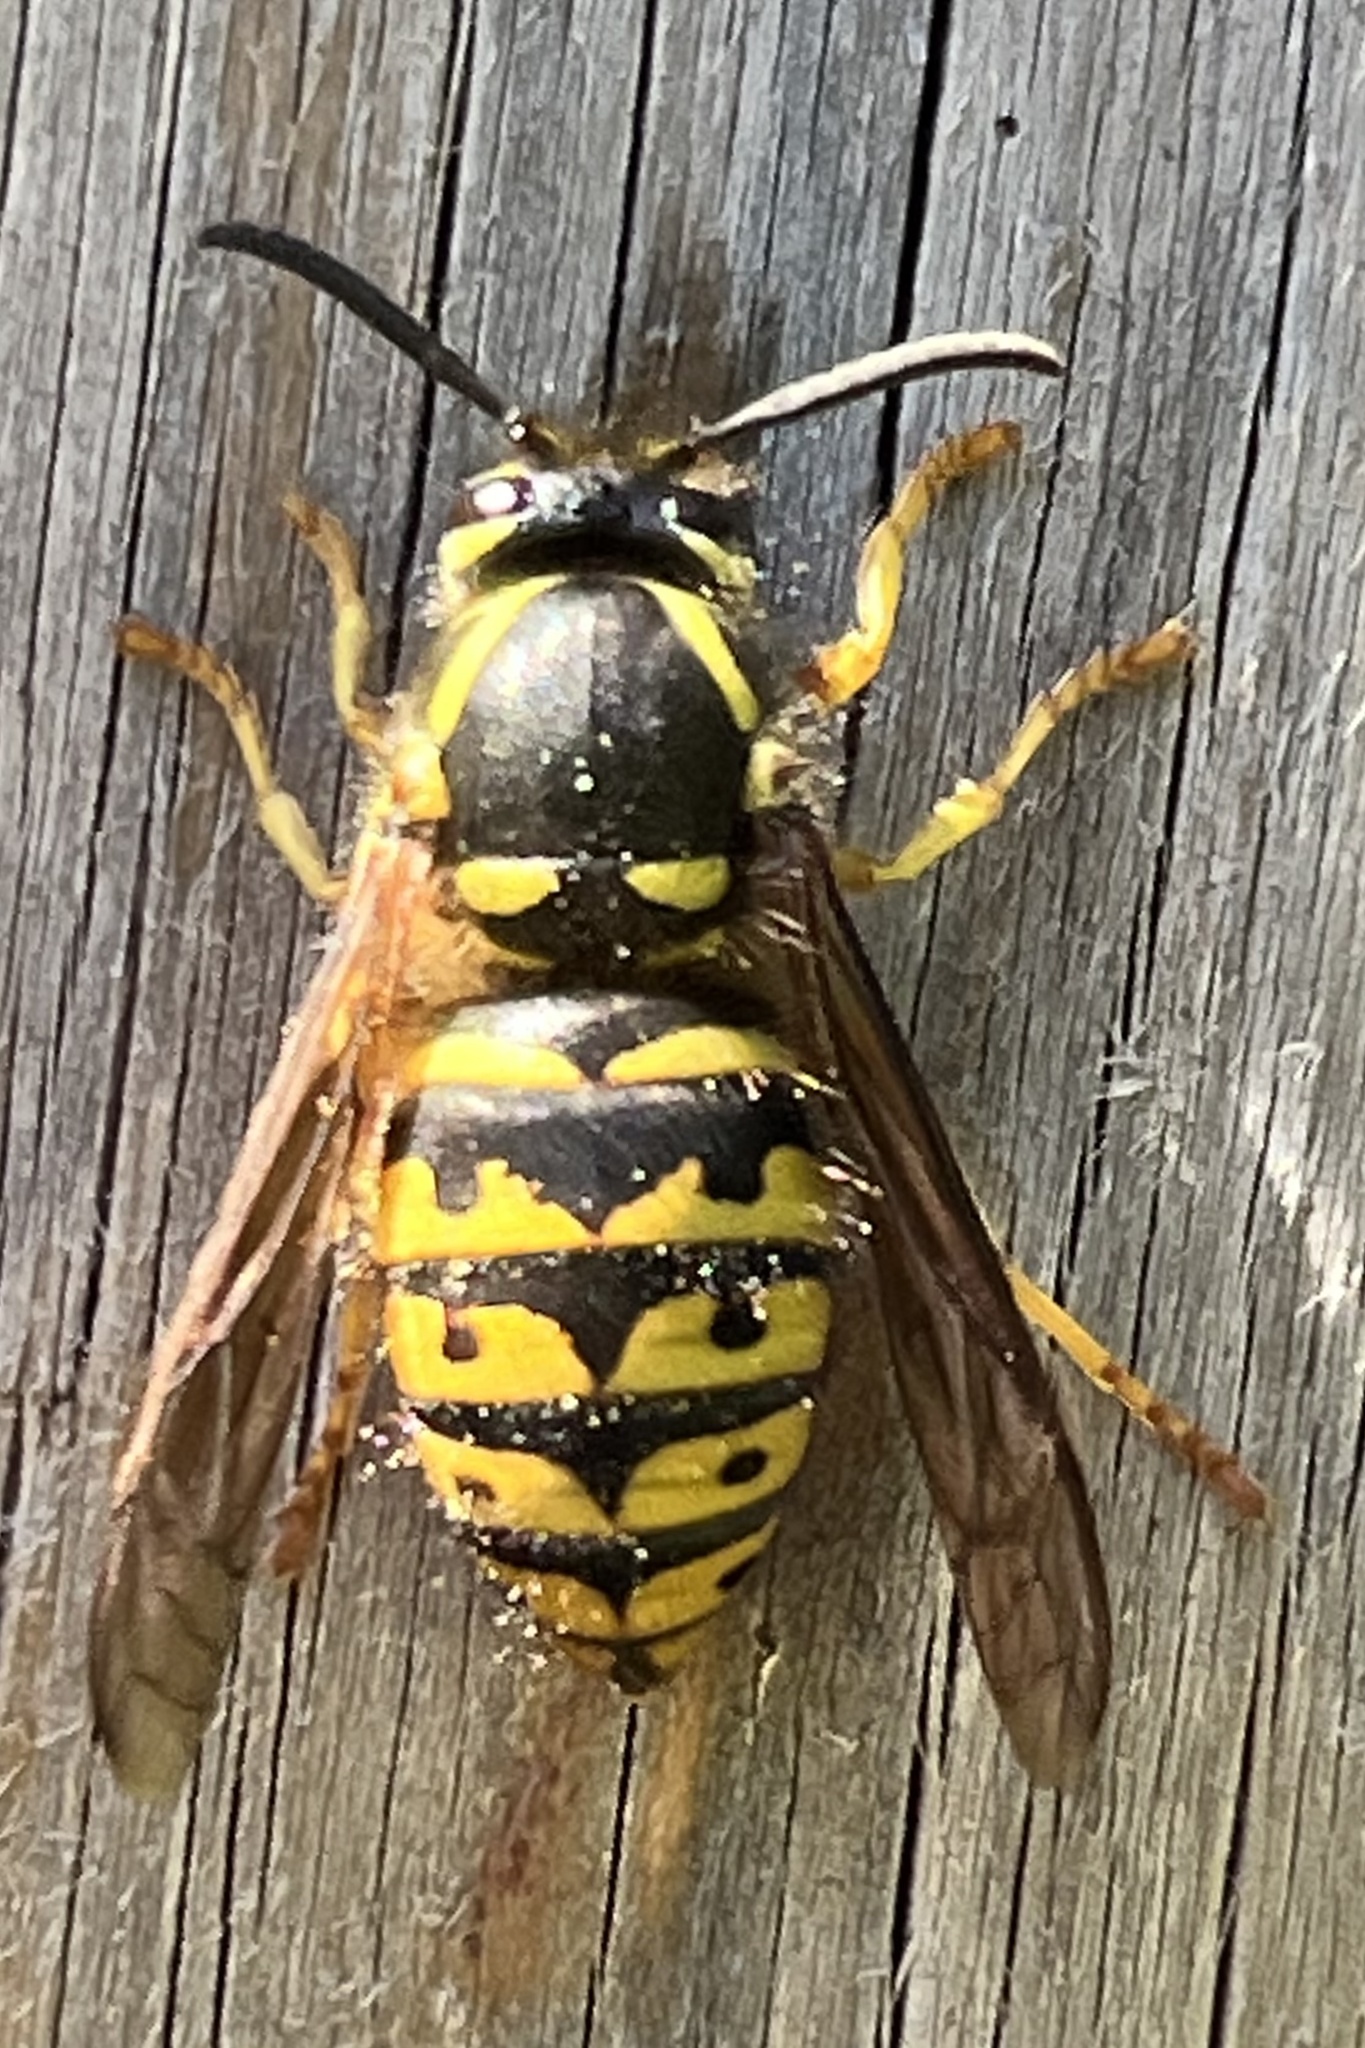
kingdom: Animalia
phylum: Arthropoda
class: Insecta
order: Hymenoptera
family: Vespidae
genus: Dolichovespula
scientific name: Dolichovespula arenaria
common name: Aerial yellowjacket
